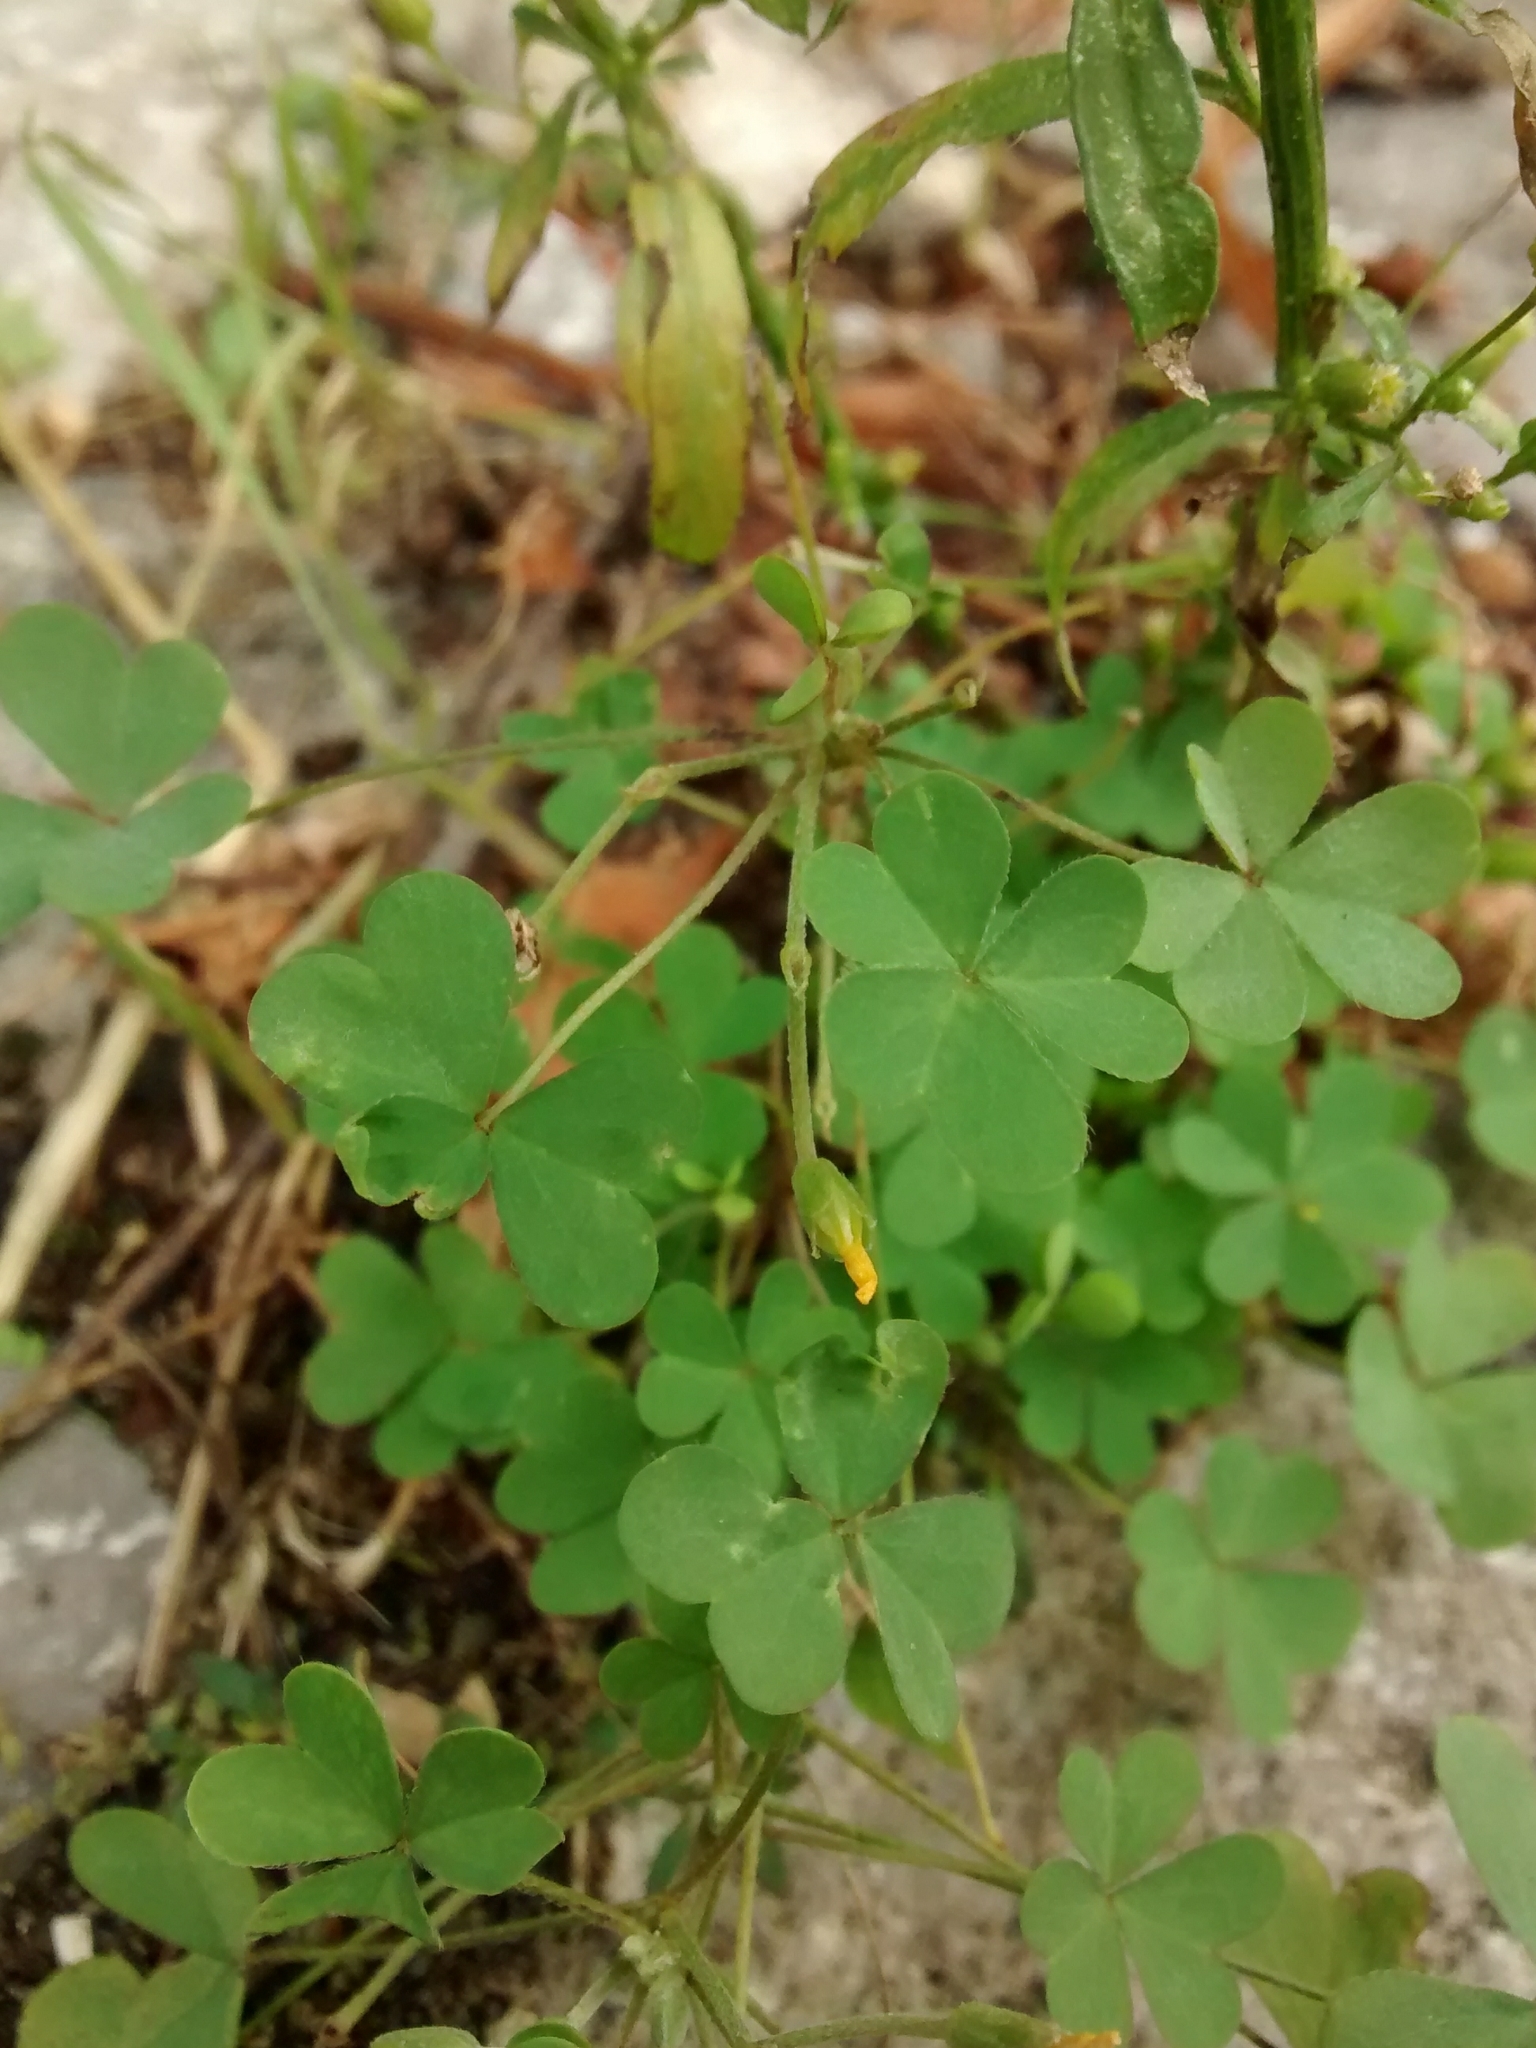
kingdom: Plantae
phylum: Tracheophyta
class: Magnoliopsida
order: Oxalidales
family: Oxalidaceae
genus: Oxalis
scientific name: Oxalis stricta
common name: Upright yellow-sorrel
